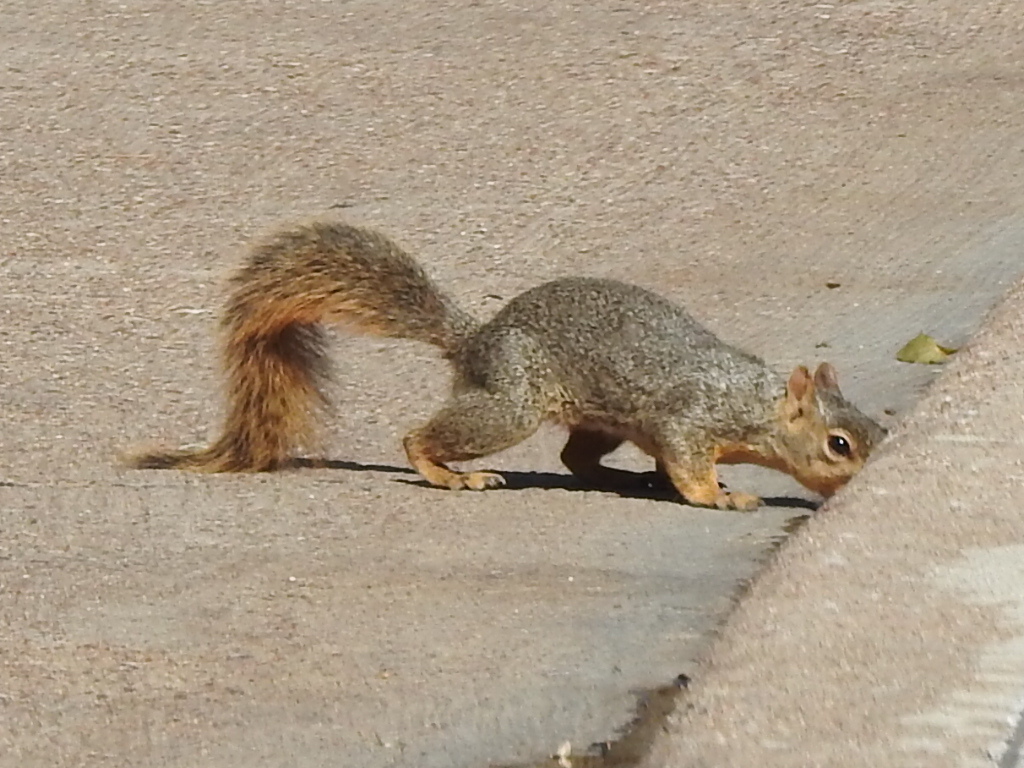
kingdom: Animalia
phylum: Chordata
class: Mammalia
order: Rodentia
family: Sciuridae
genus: Sciurus
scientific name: Sciurus niger
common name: Fox squirrel
